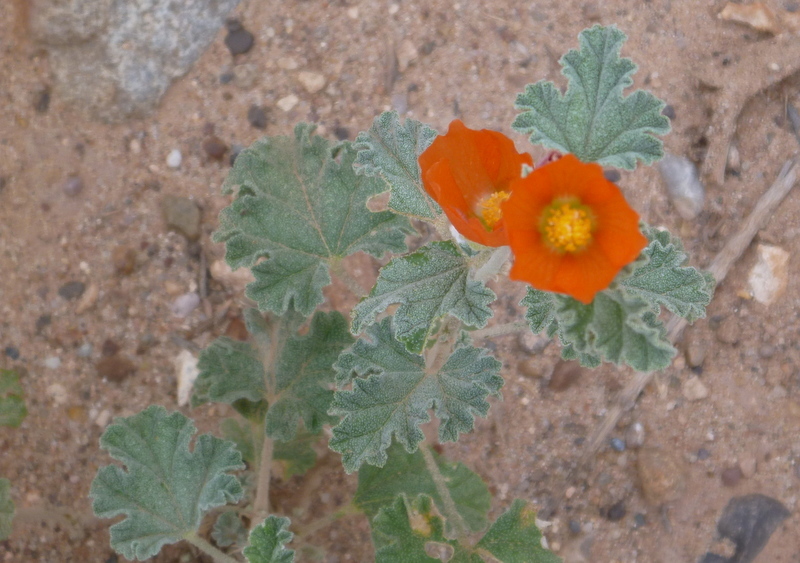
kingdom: Plantae
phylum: Tracheophyta
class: Magnoliopsida
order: Malvales
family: Malvaceae
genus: Sphaeralcea
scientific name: Sphaeralcea ambigua
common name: Apricot globe-mallow
